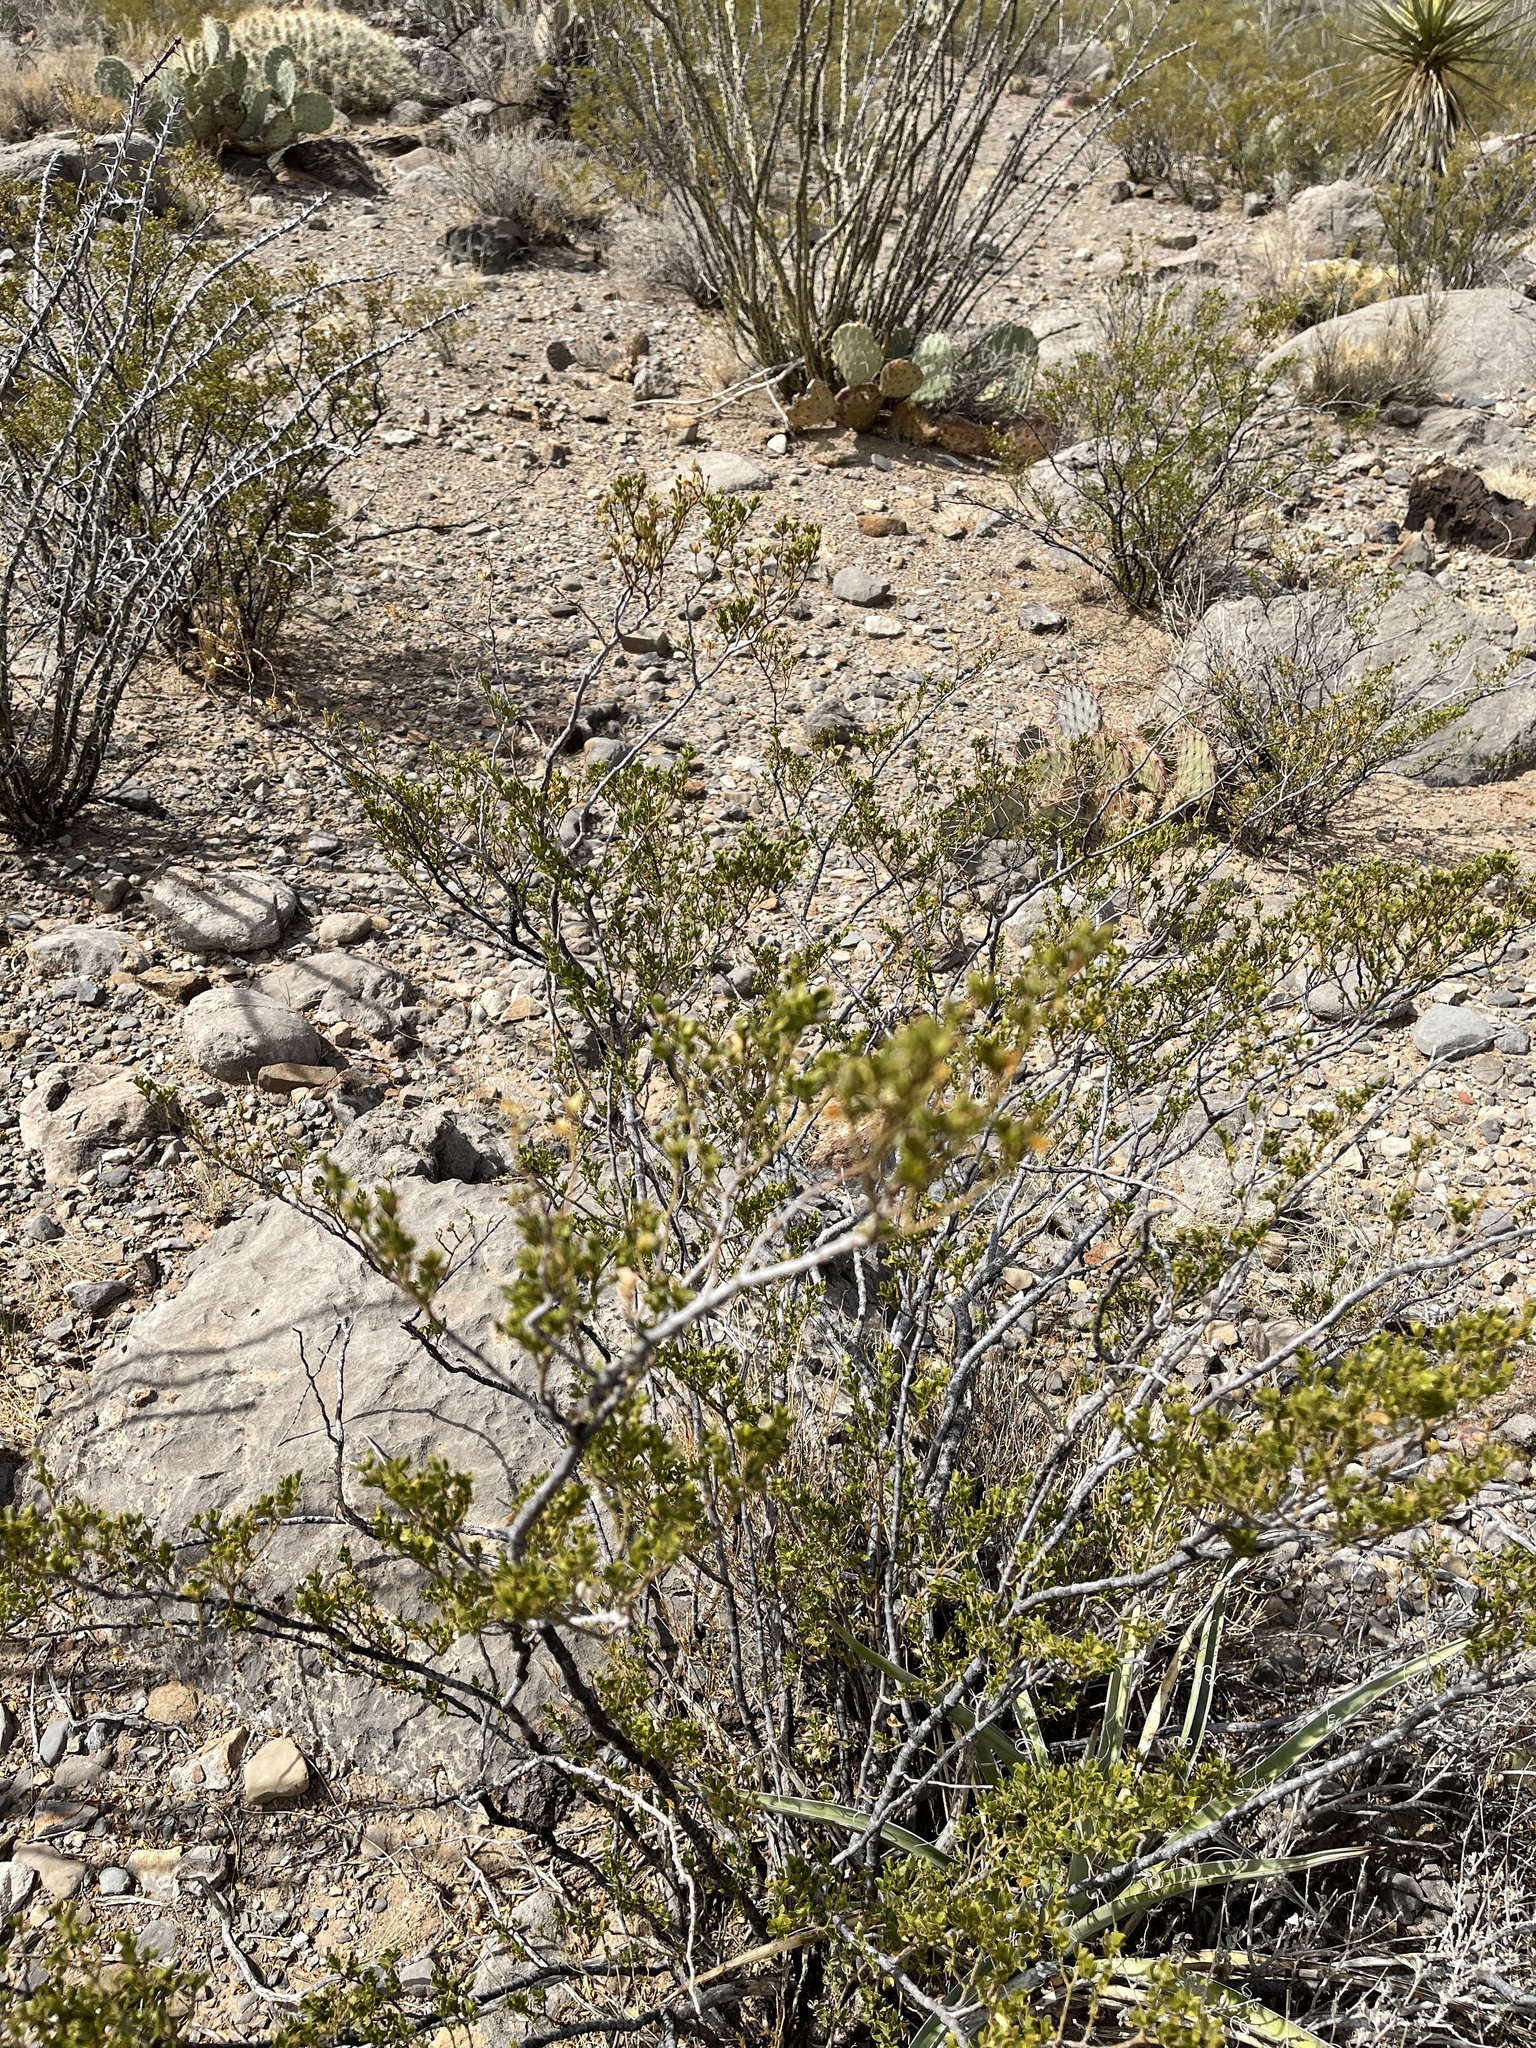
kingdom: Plantae
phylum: Tracheophyta
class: Magnoliopsida
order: Zygophyllales
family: Zygophyllaceae
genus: Larrea
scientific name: Larrea tridentata
